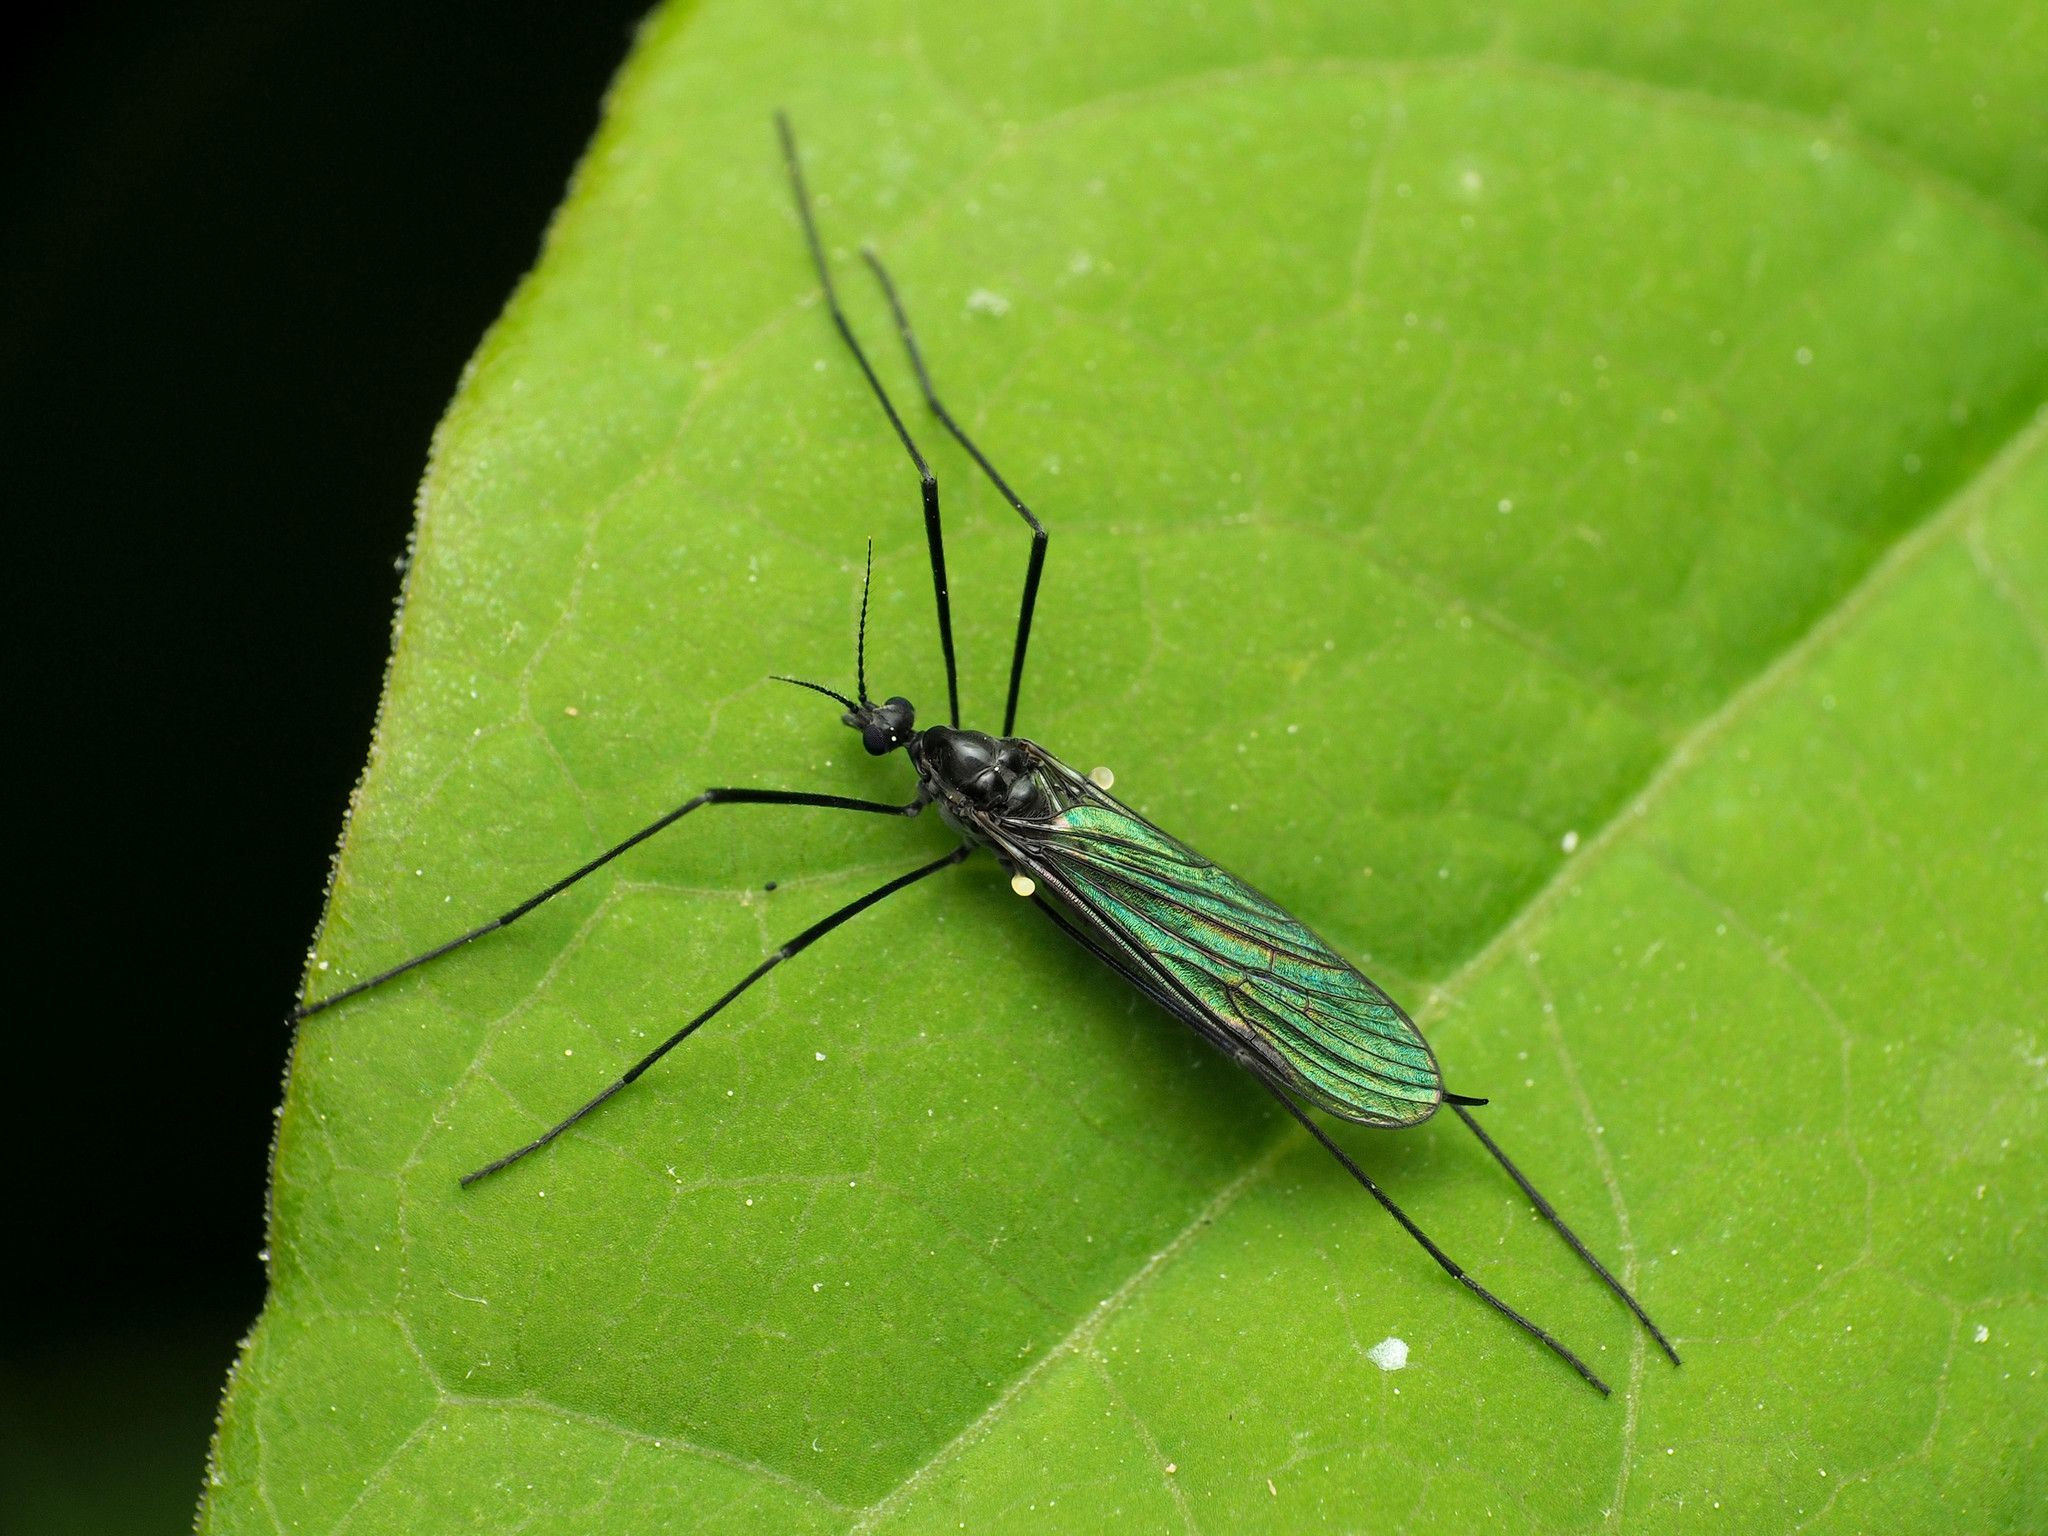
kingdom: Animalia
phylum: Arthropoda
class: Insecta
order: Diptera
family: Limoniidae
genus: Gnophomyia
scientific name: Gnophomyia tristissima
